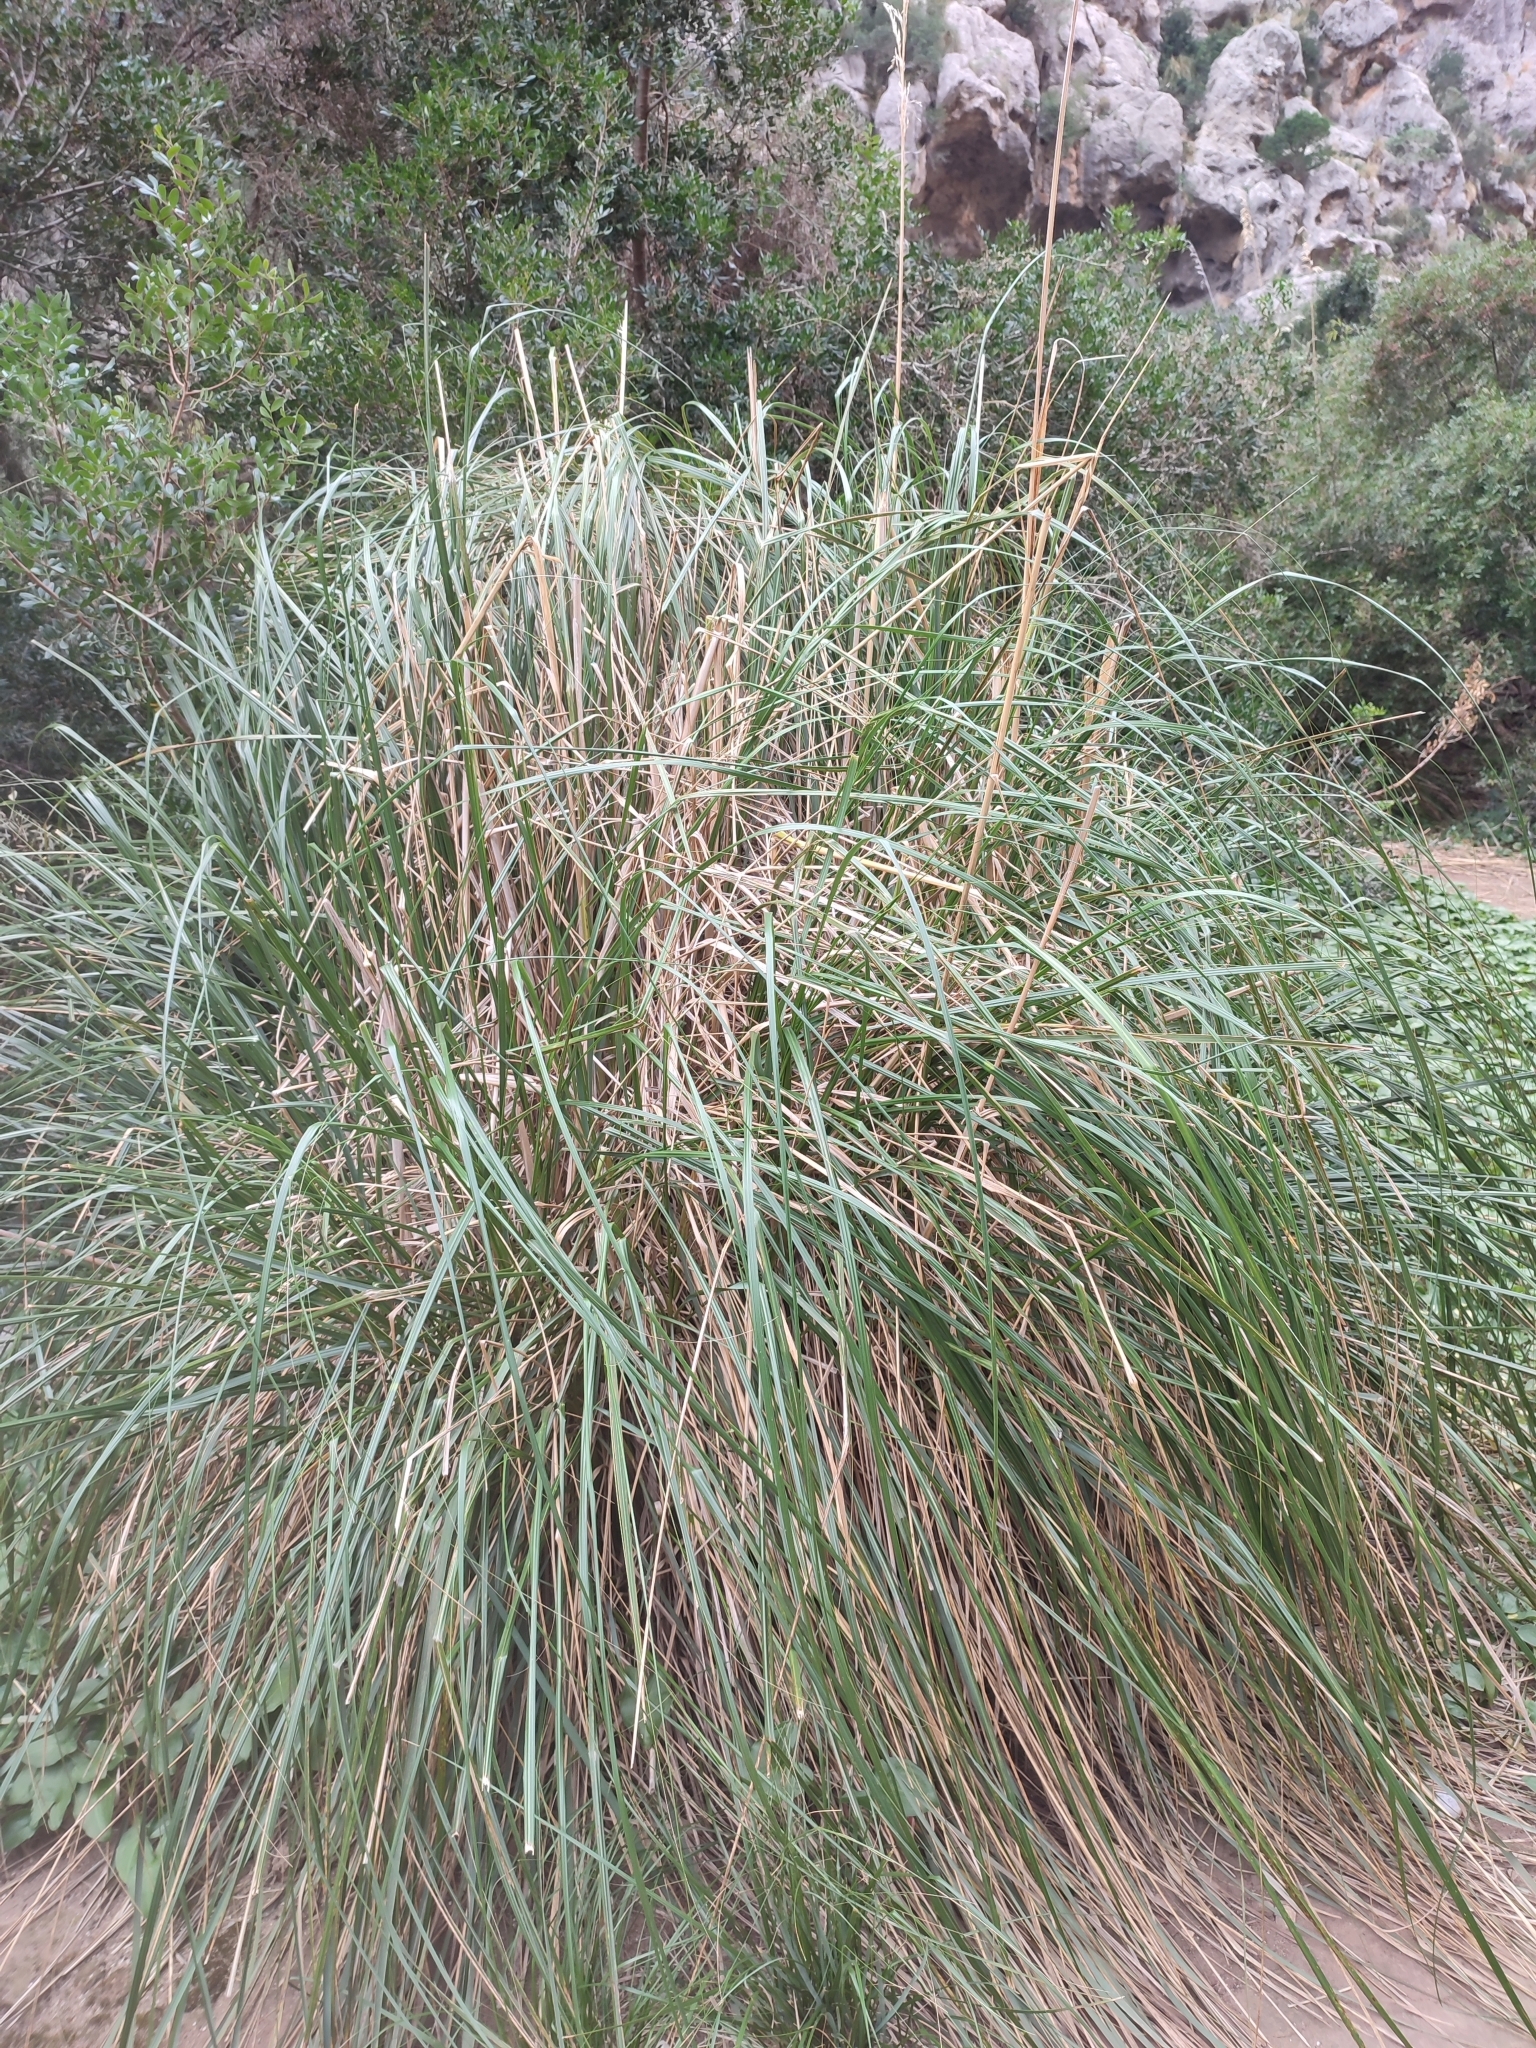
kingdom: Plantae
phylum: Tracheophyta
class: Liliopsida
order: Poales
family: Poaceae
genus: Ampelodesmos
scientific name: Ampelodesmos mauritanicus
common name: Mauritanian grass
